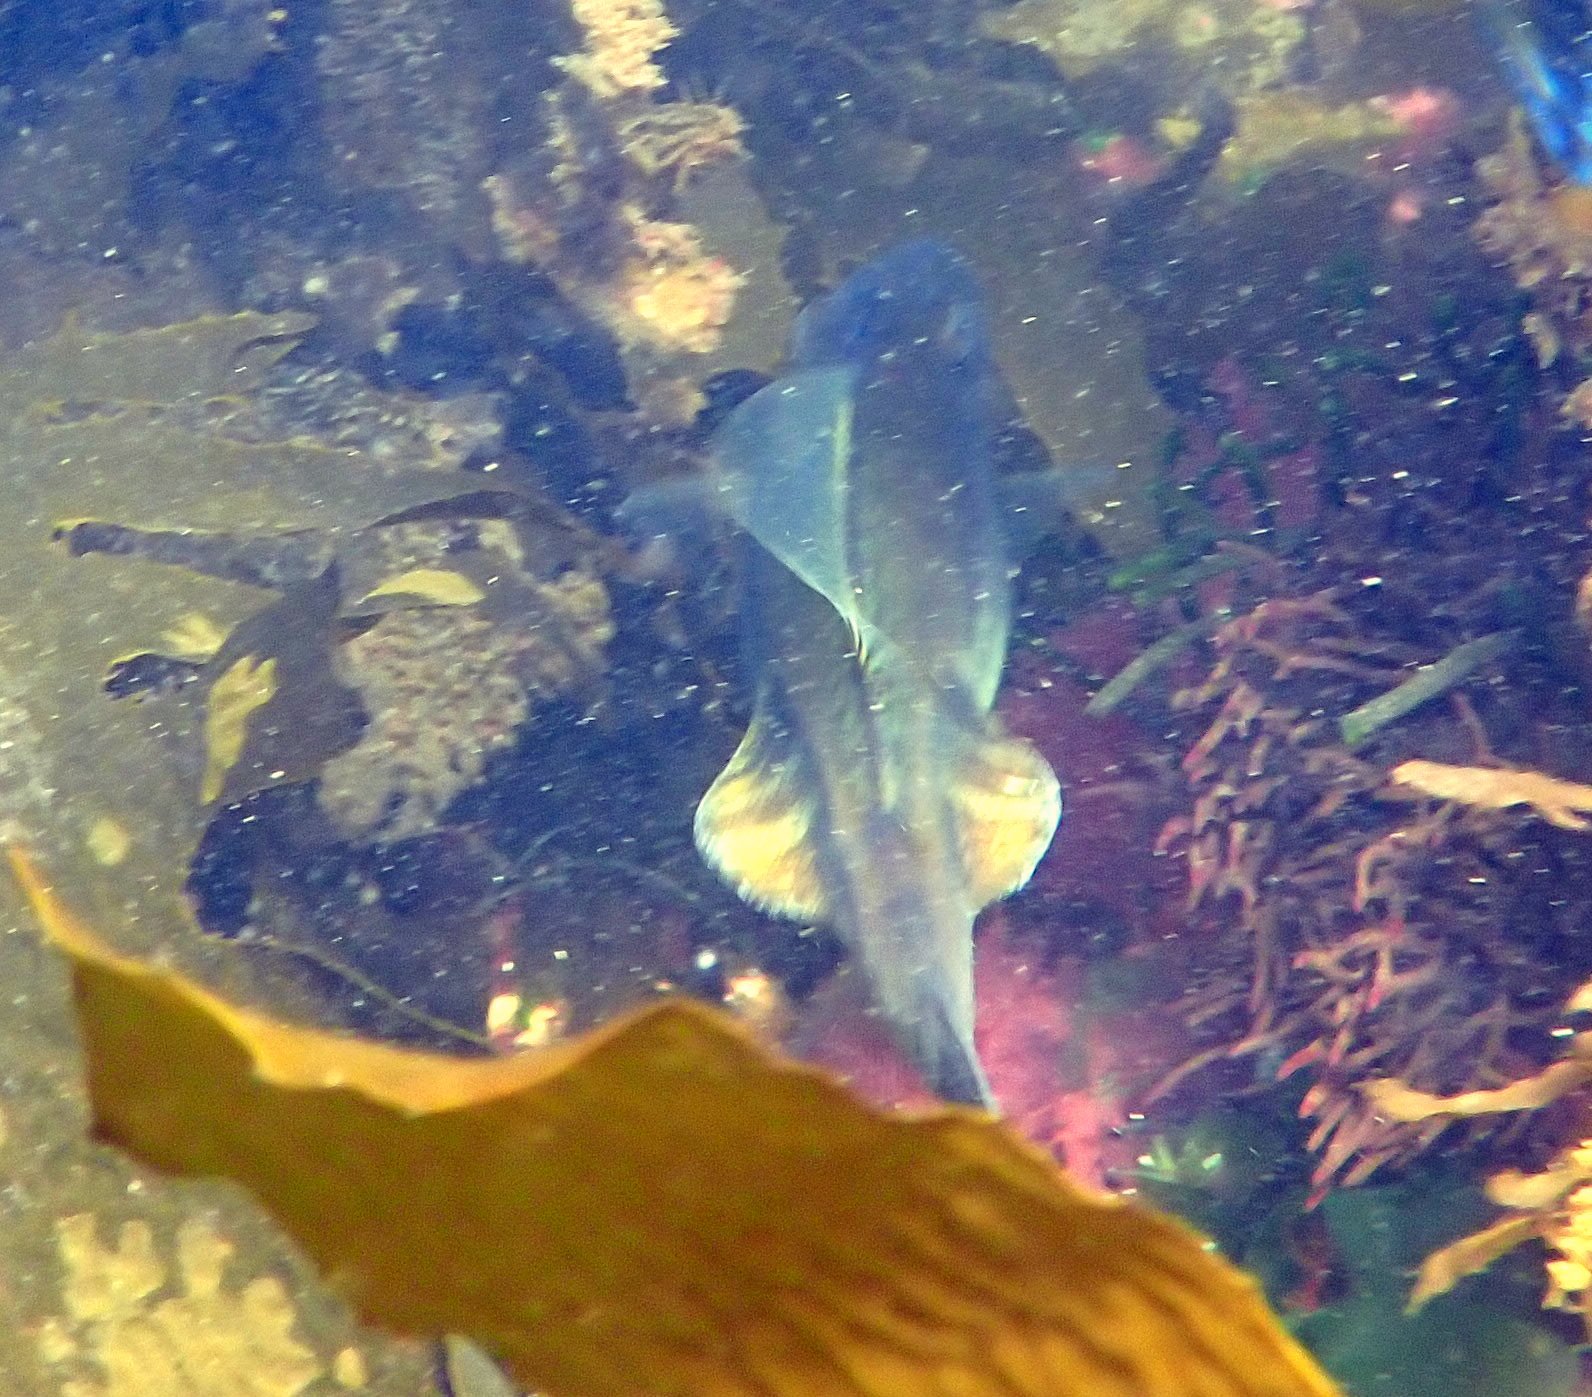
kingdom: Animalia
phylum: Chordata
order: Tetraodontiformes
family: Monacanthidae
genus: Acanthaluteres
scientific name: Acanthaluteres vittiger
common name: Brown leatherjacket
